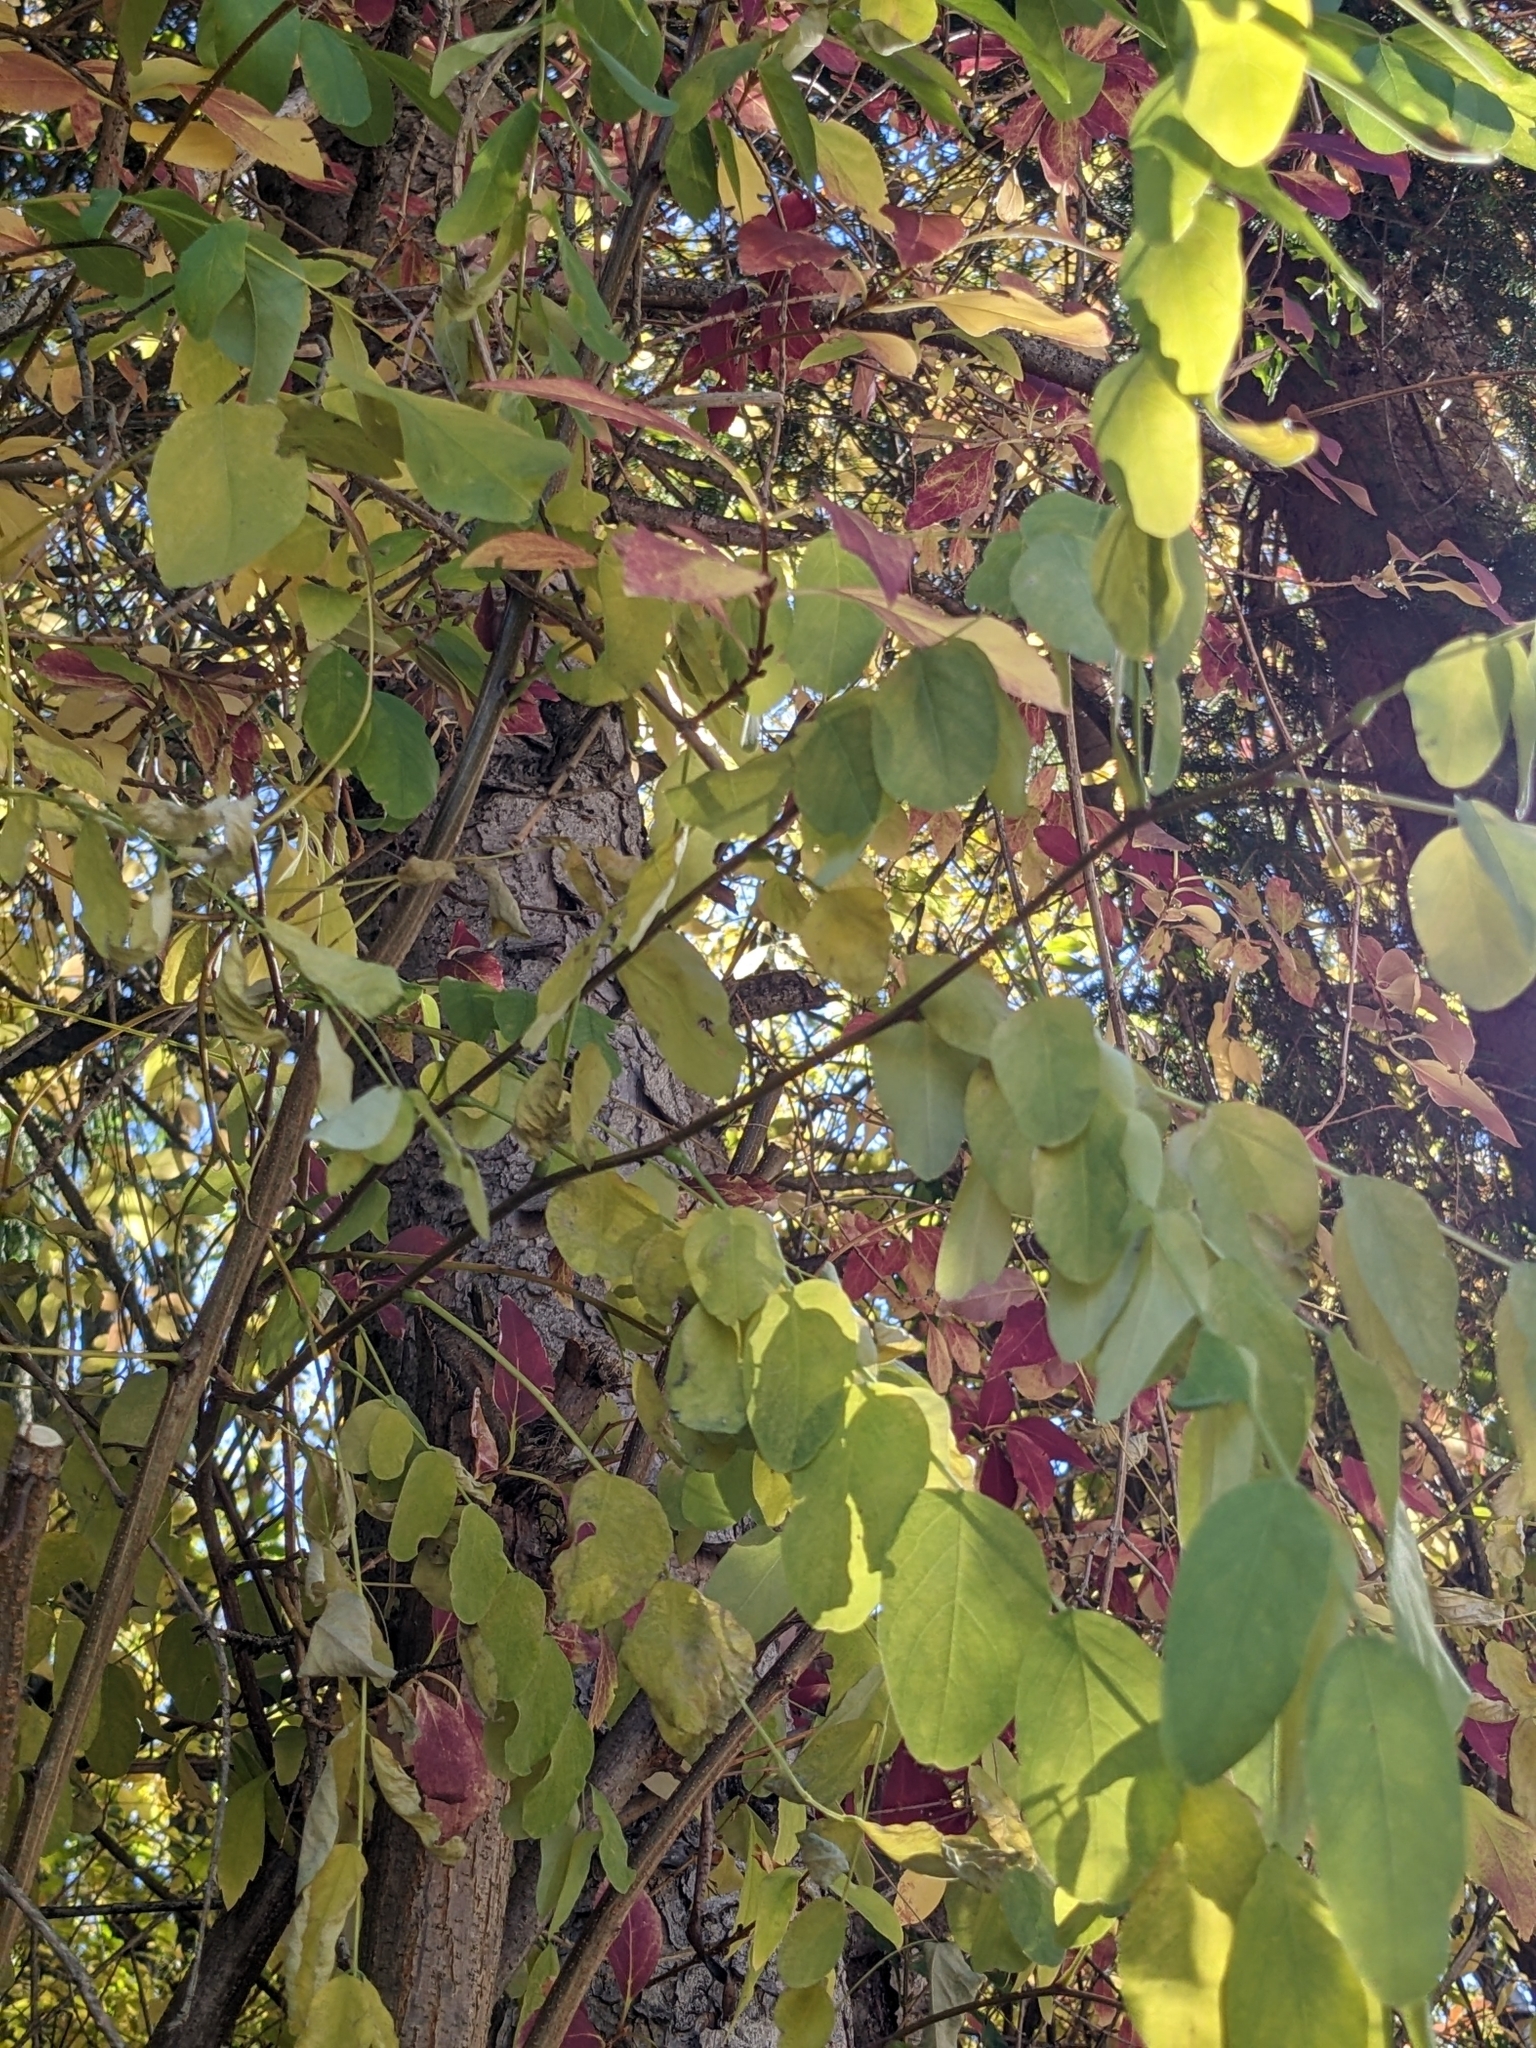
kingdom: Plantae
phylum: Tracheophyta
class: Magnoliopsida
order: Fabales
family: Fabaceae
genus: Robinia
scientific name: Robinia pseudoacacia
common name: Black locust
